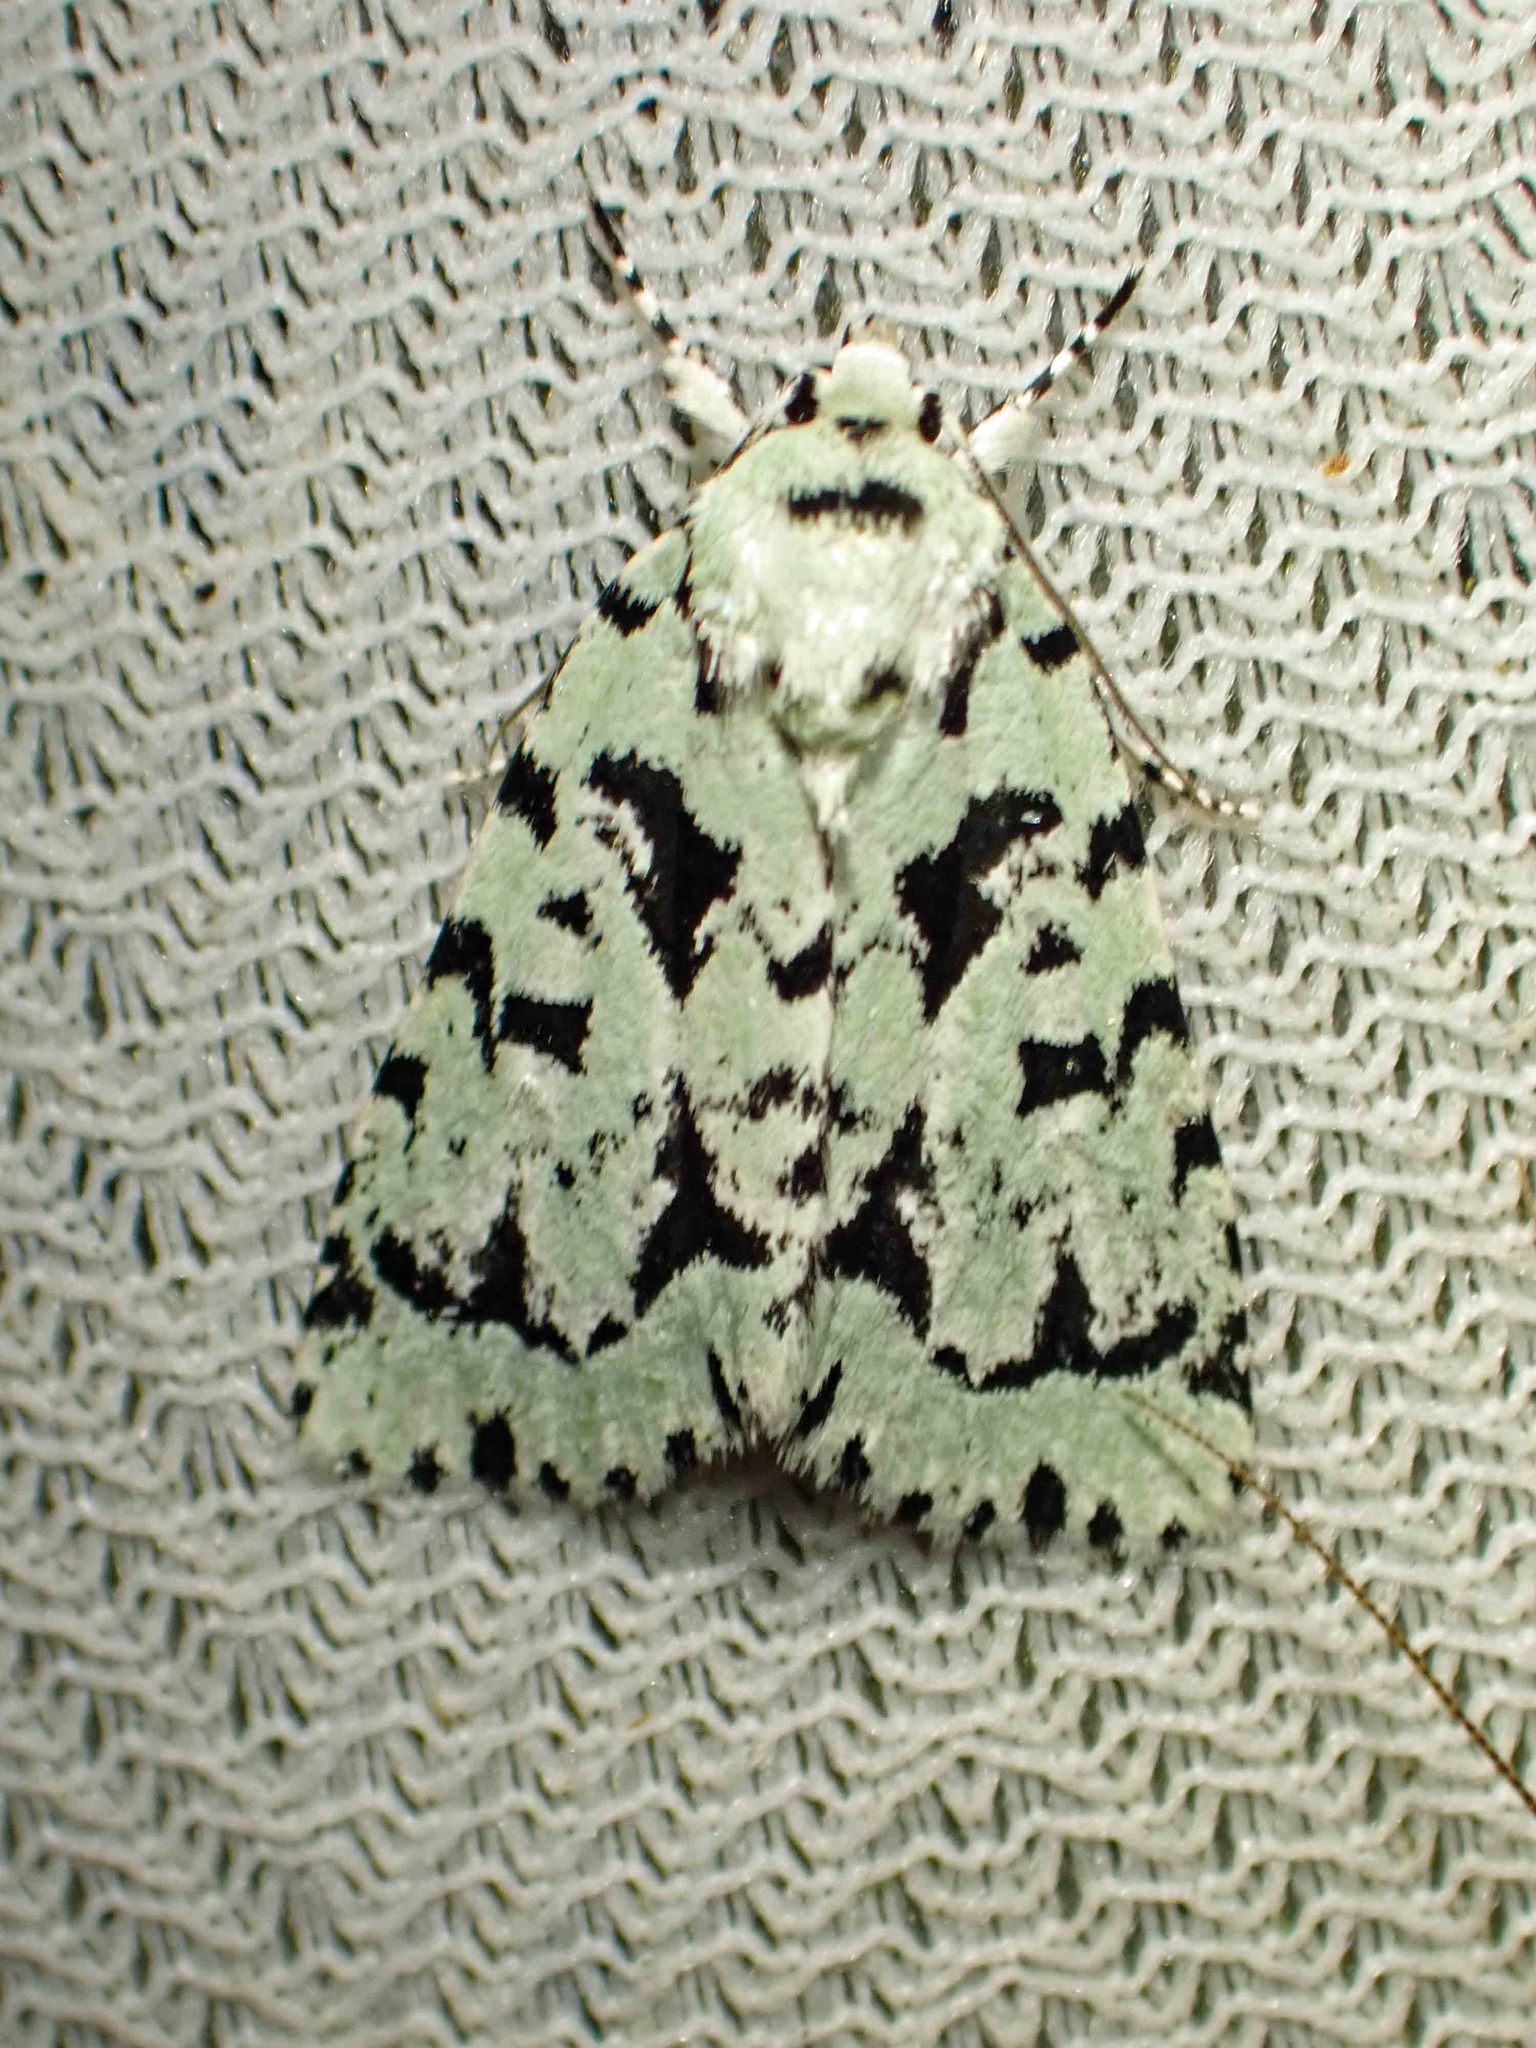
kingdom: Animalia
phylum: Arthropoda
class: Insecta
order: Lepidoptera
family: Noctuidae
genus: Acronicta
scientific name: Acronicta fallax
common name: Green marvel
